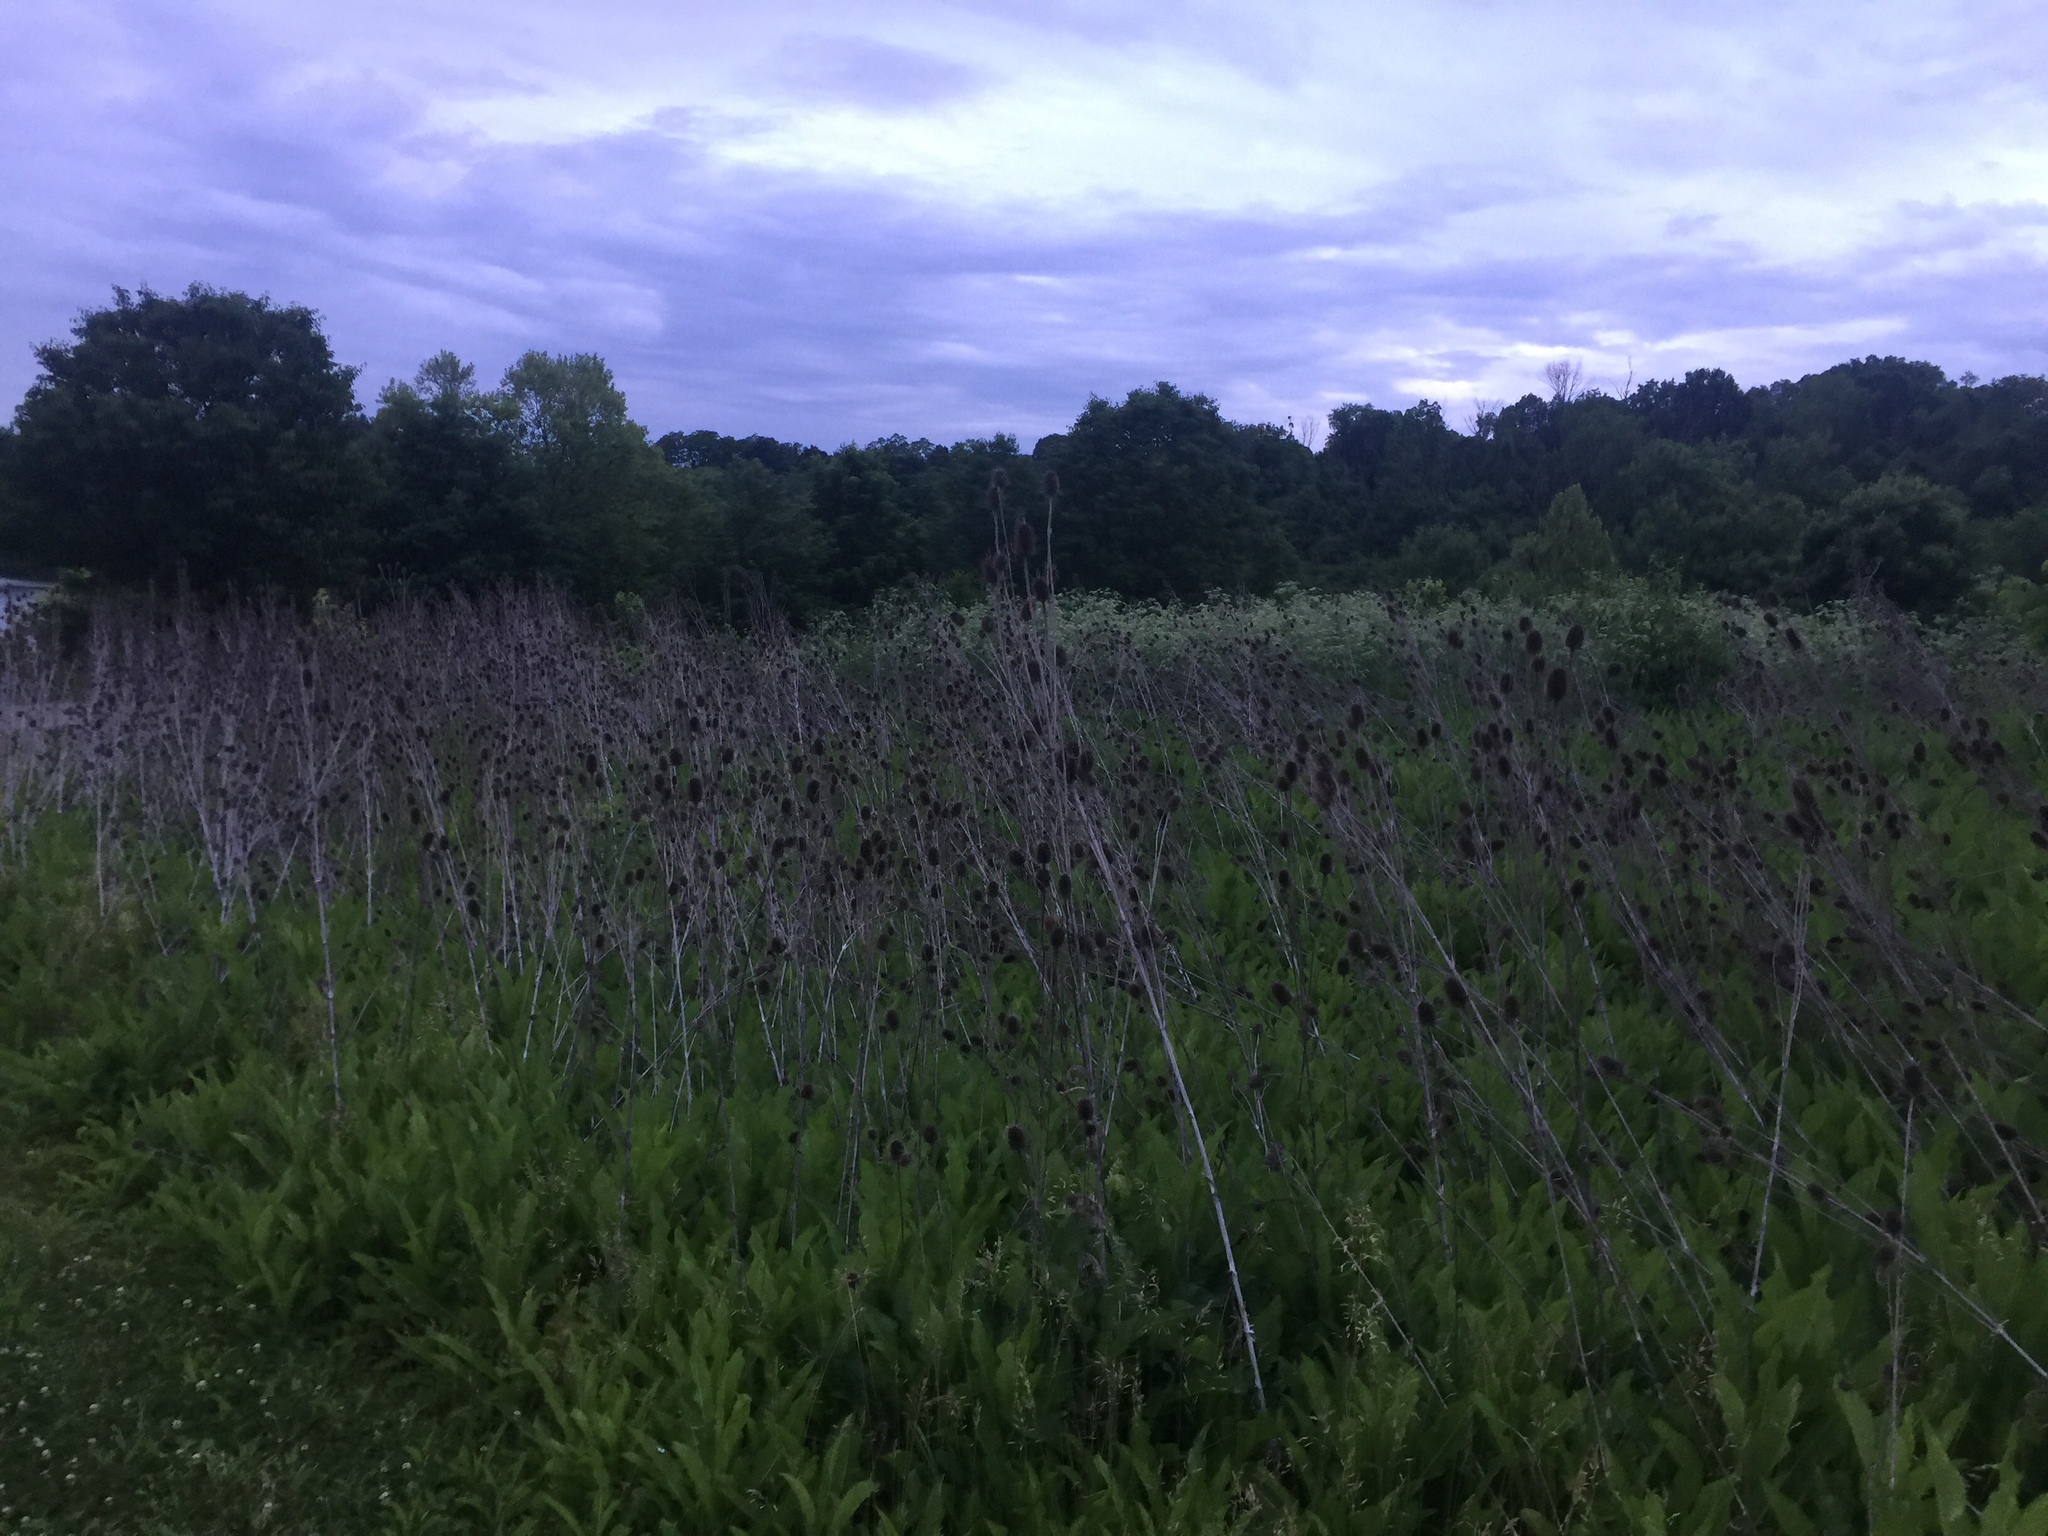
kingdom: Plantae
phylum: Tracheophyta
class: Magnoliopsida
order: Dipsacales
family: Caprifoliaceae
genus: Dipsacus
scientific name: Dipsacus fullonum
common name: Teasel
